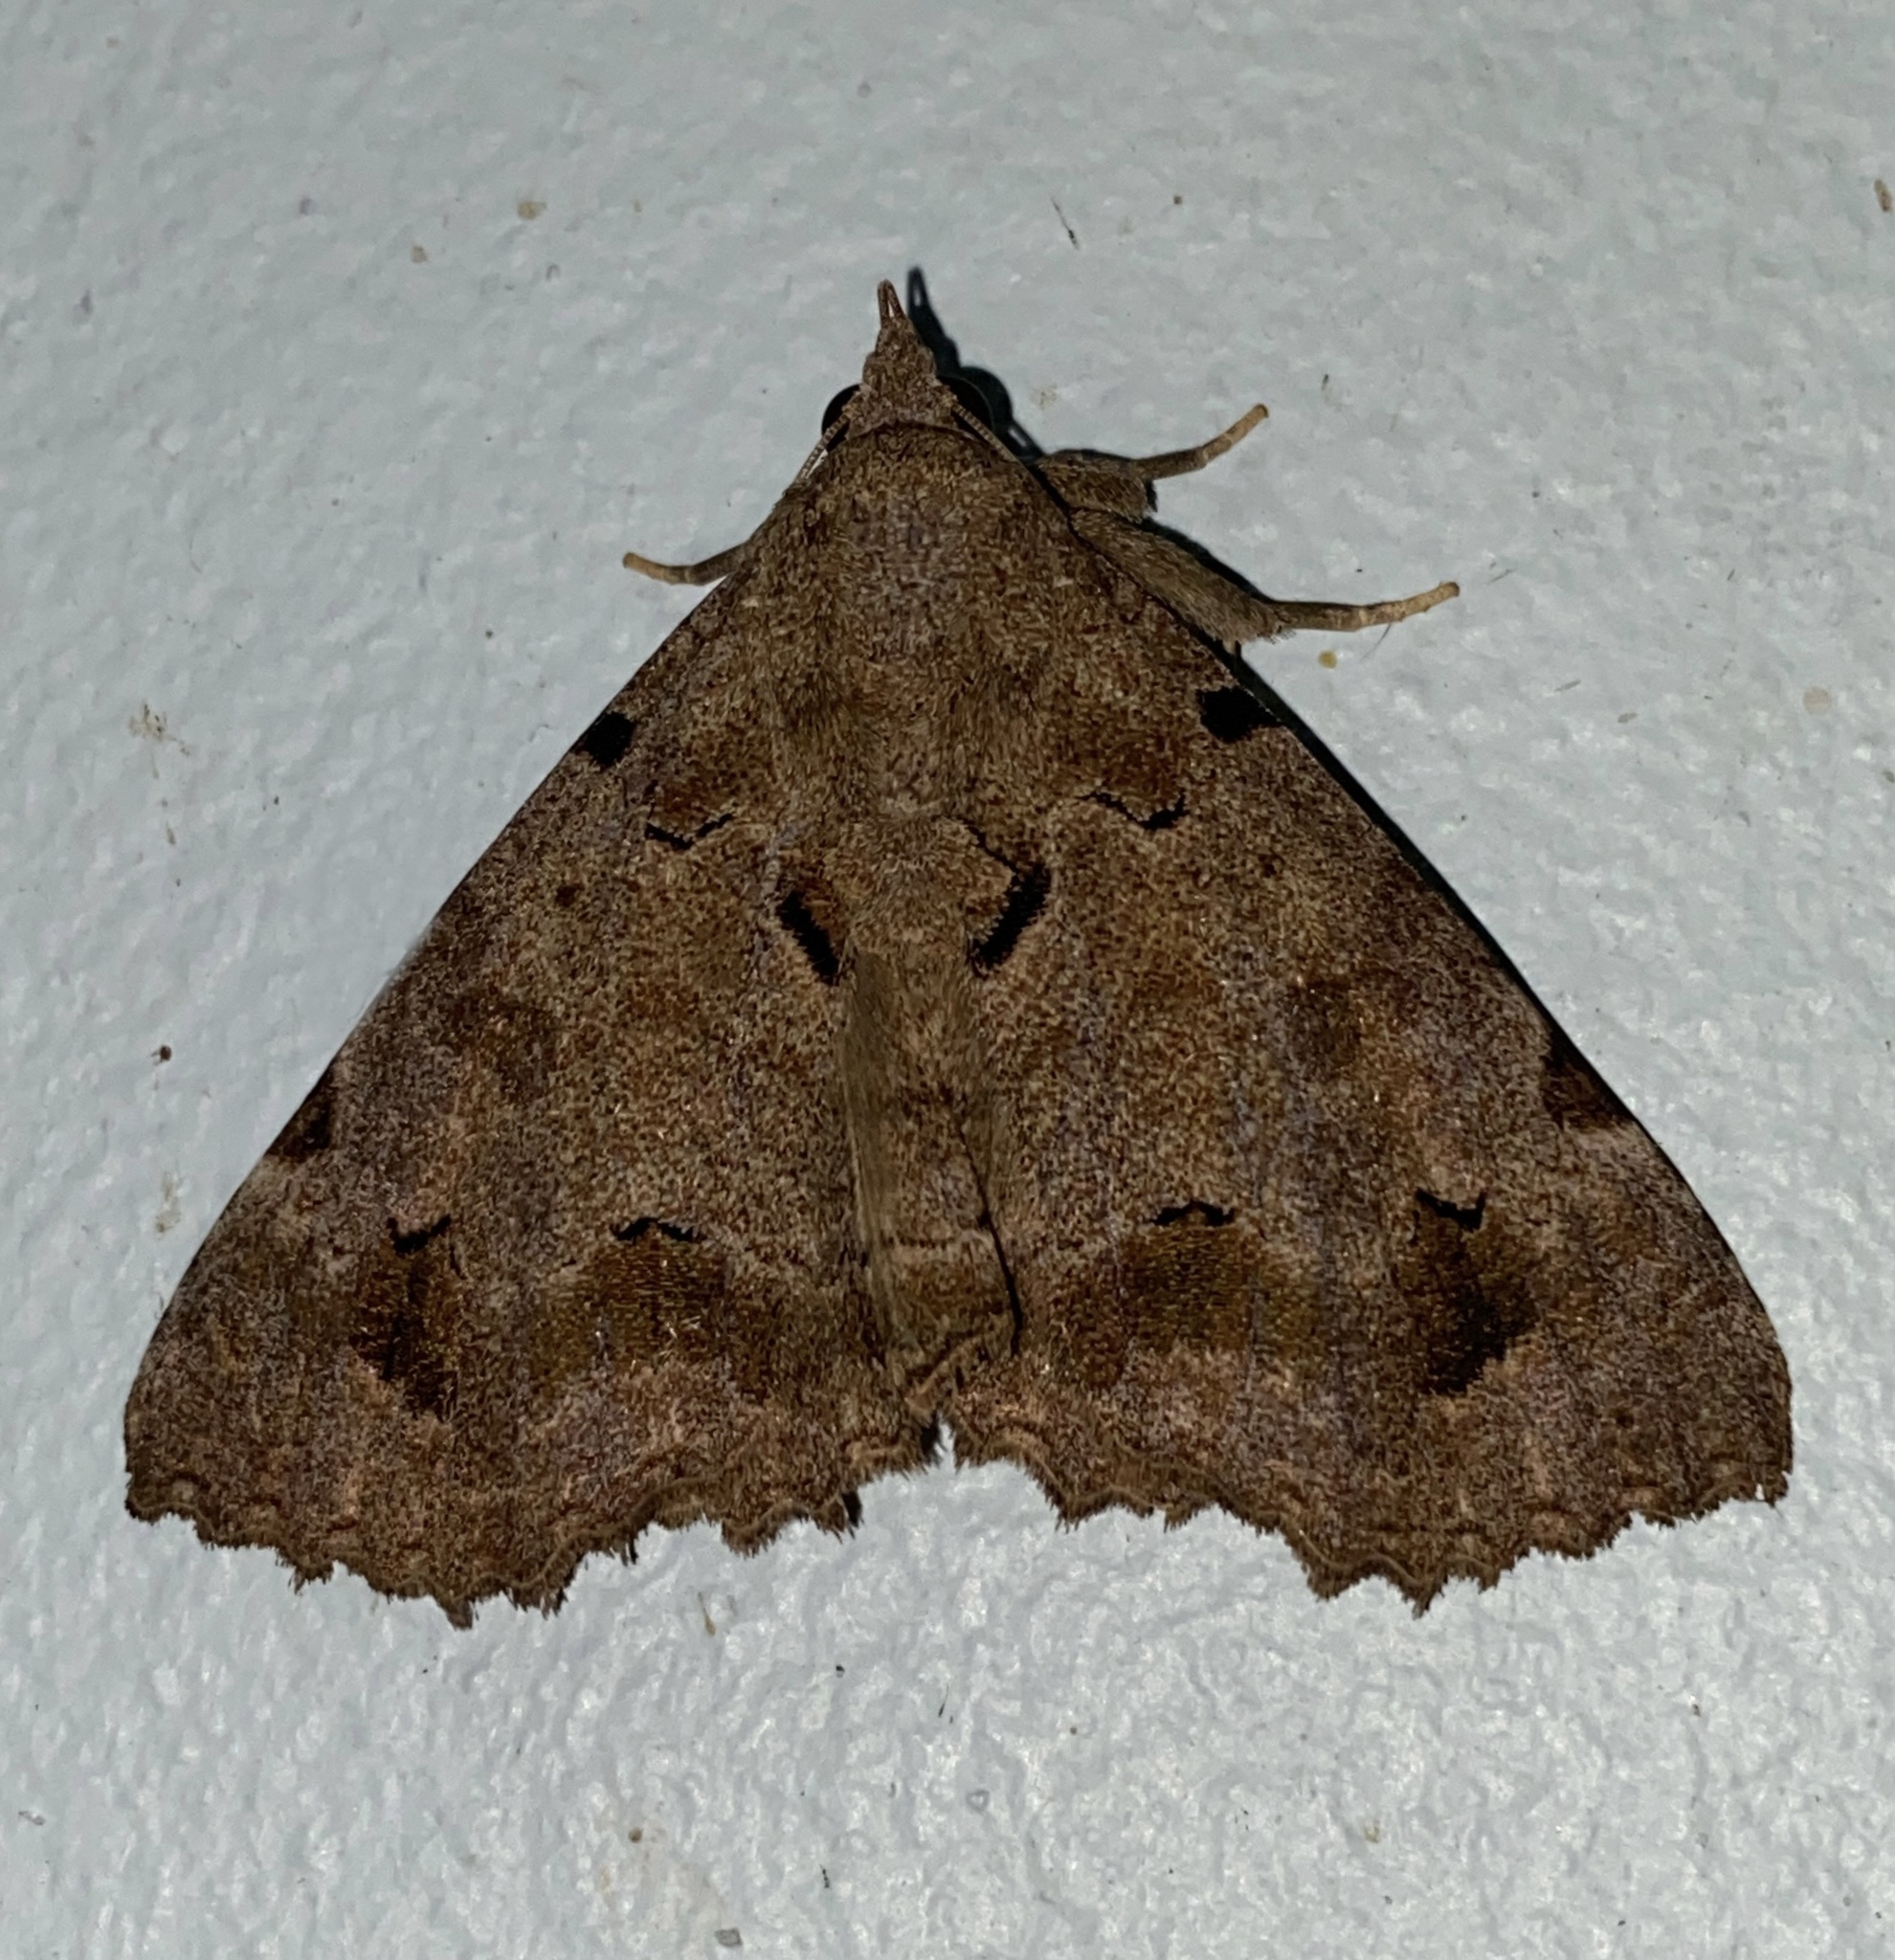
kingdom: Animalia
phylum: Arthropoda
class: Insecta
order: Lepidoptera
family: Erebidae
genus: Pseudbarydia
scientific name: Pseudbarydia bicristata
